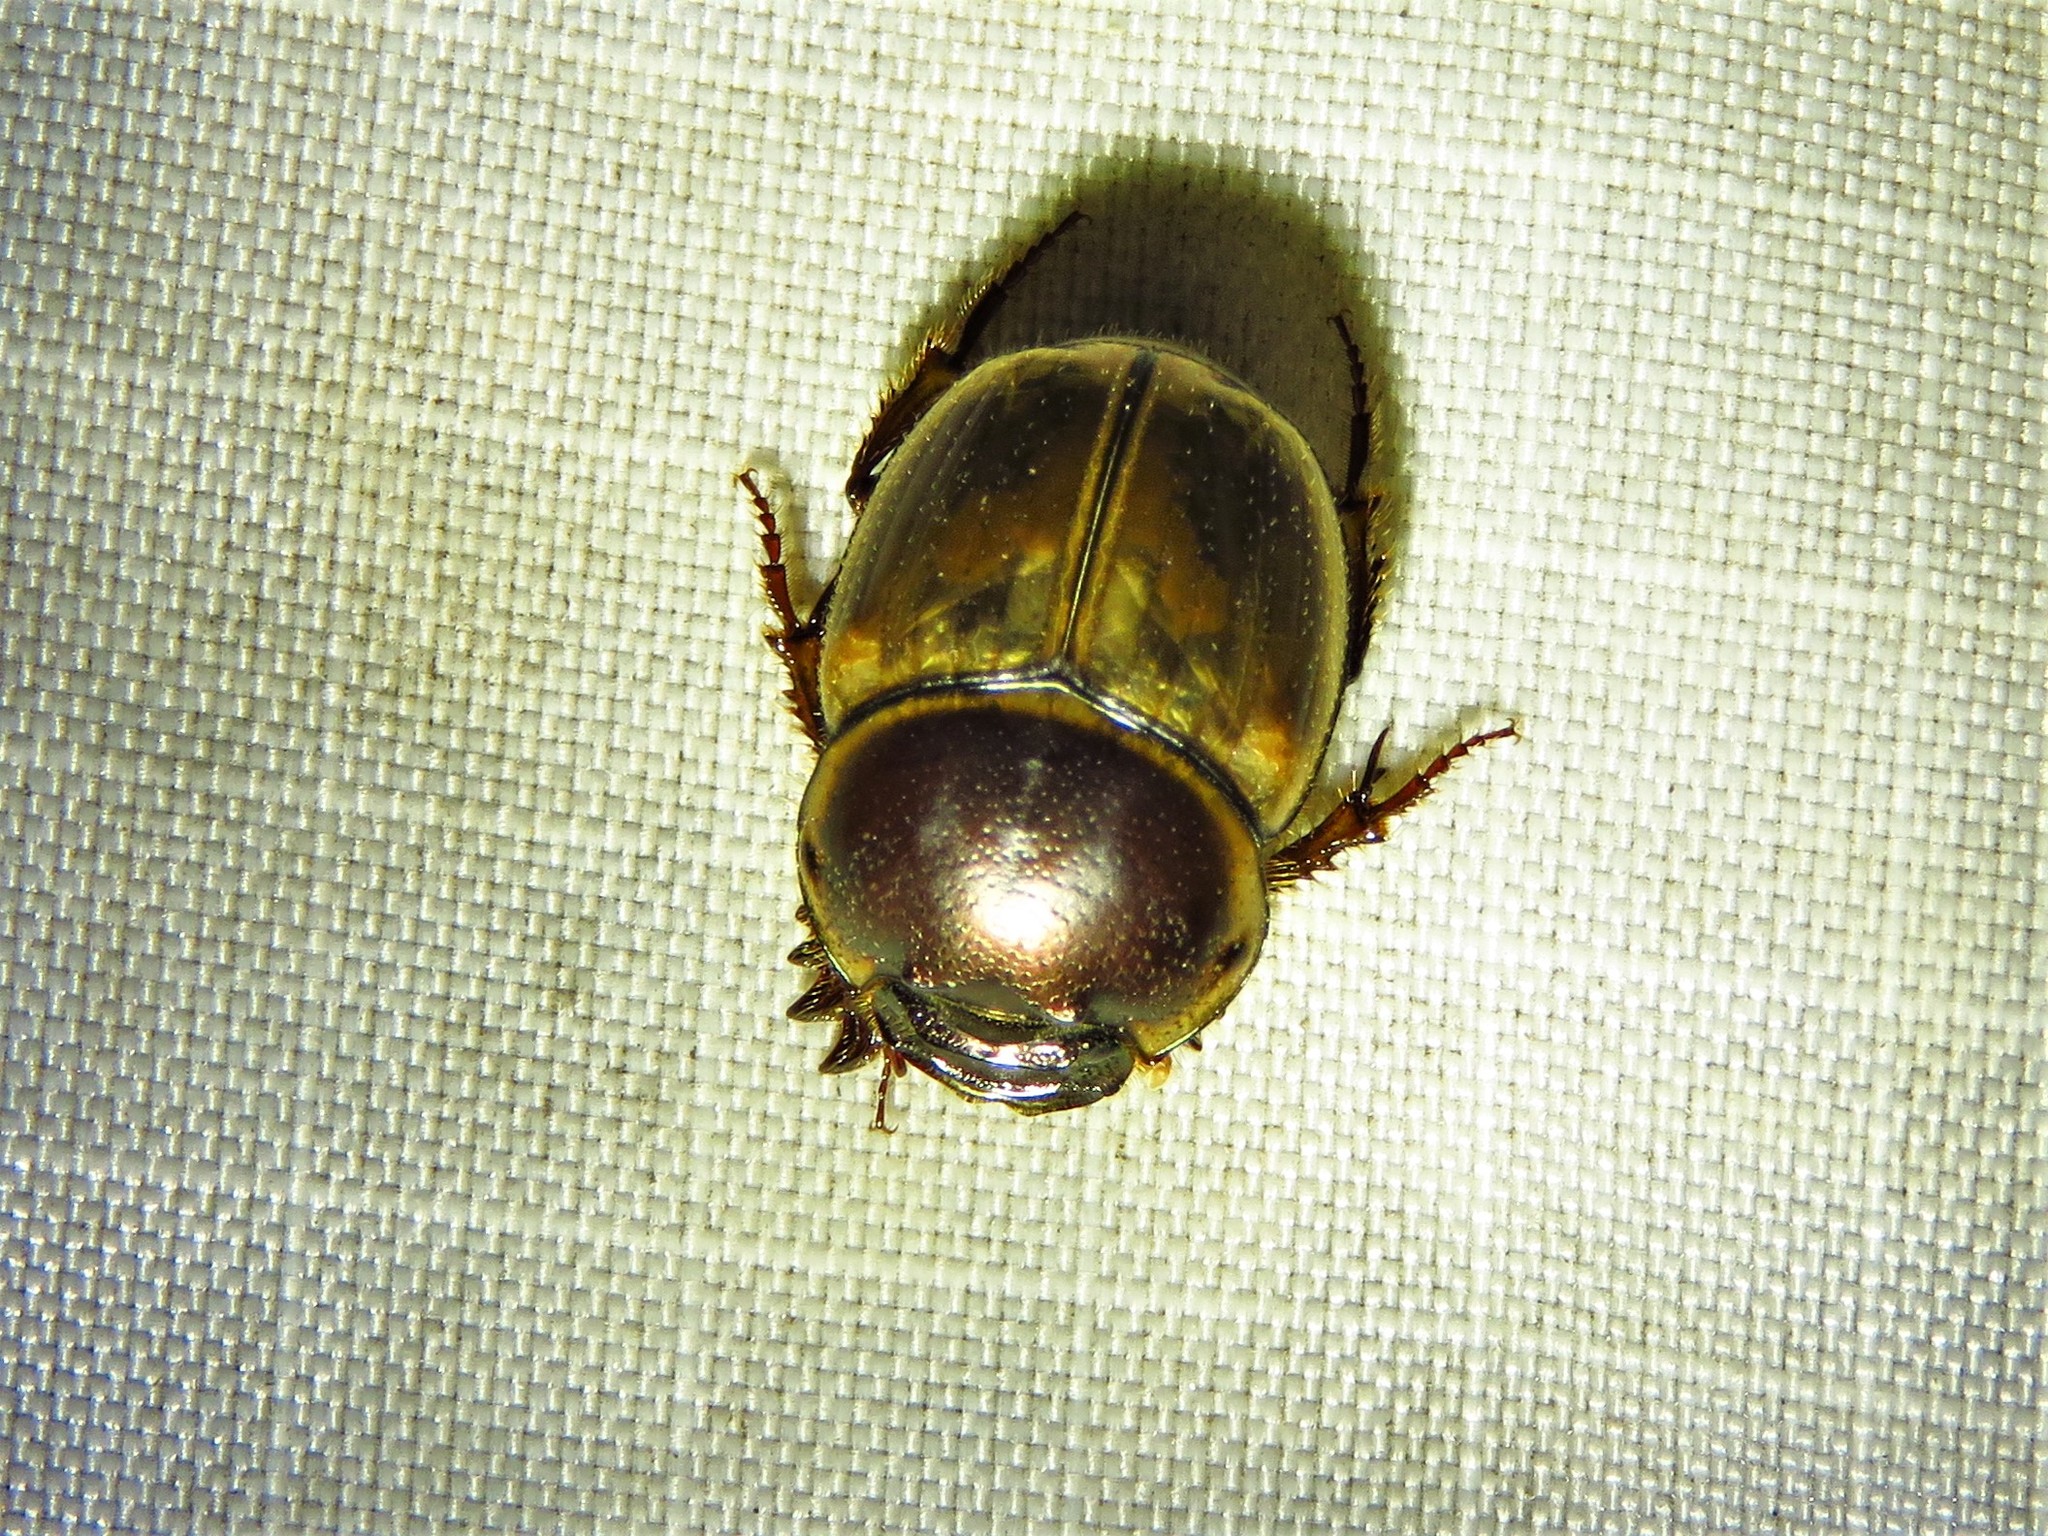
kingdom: Animalia
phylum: Arthropoda
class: Insecta
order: Coleoptera
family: Scarabaeidae
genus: Digitonthophagus
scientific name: Digitonthophagus gazella
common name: Brown dung beetle
